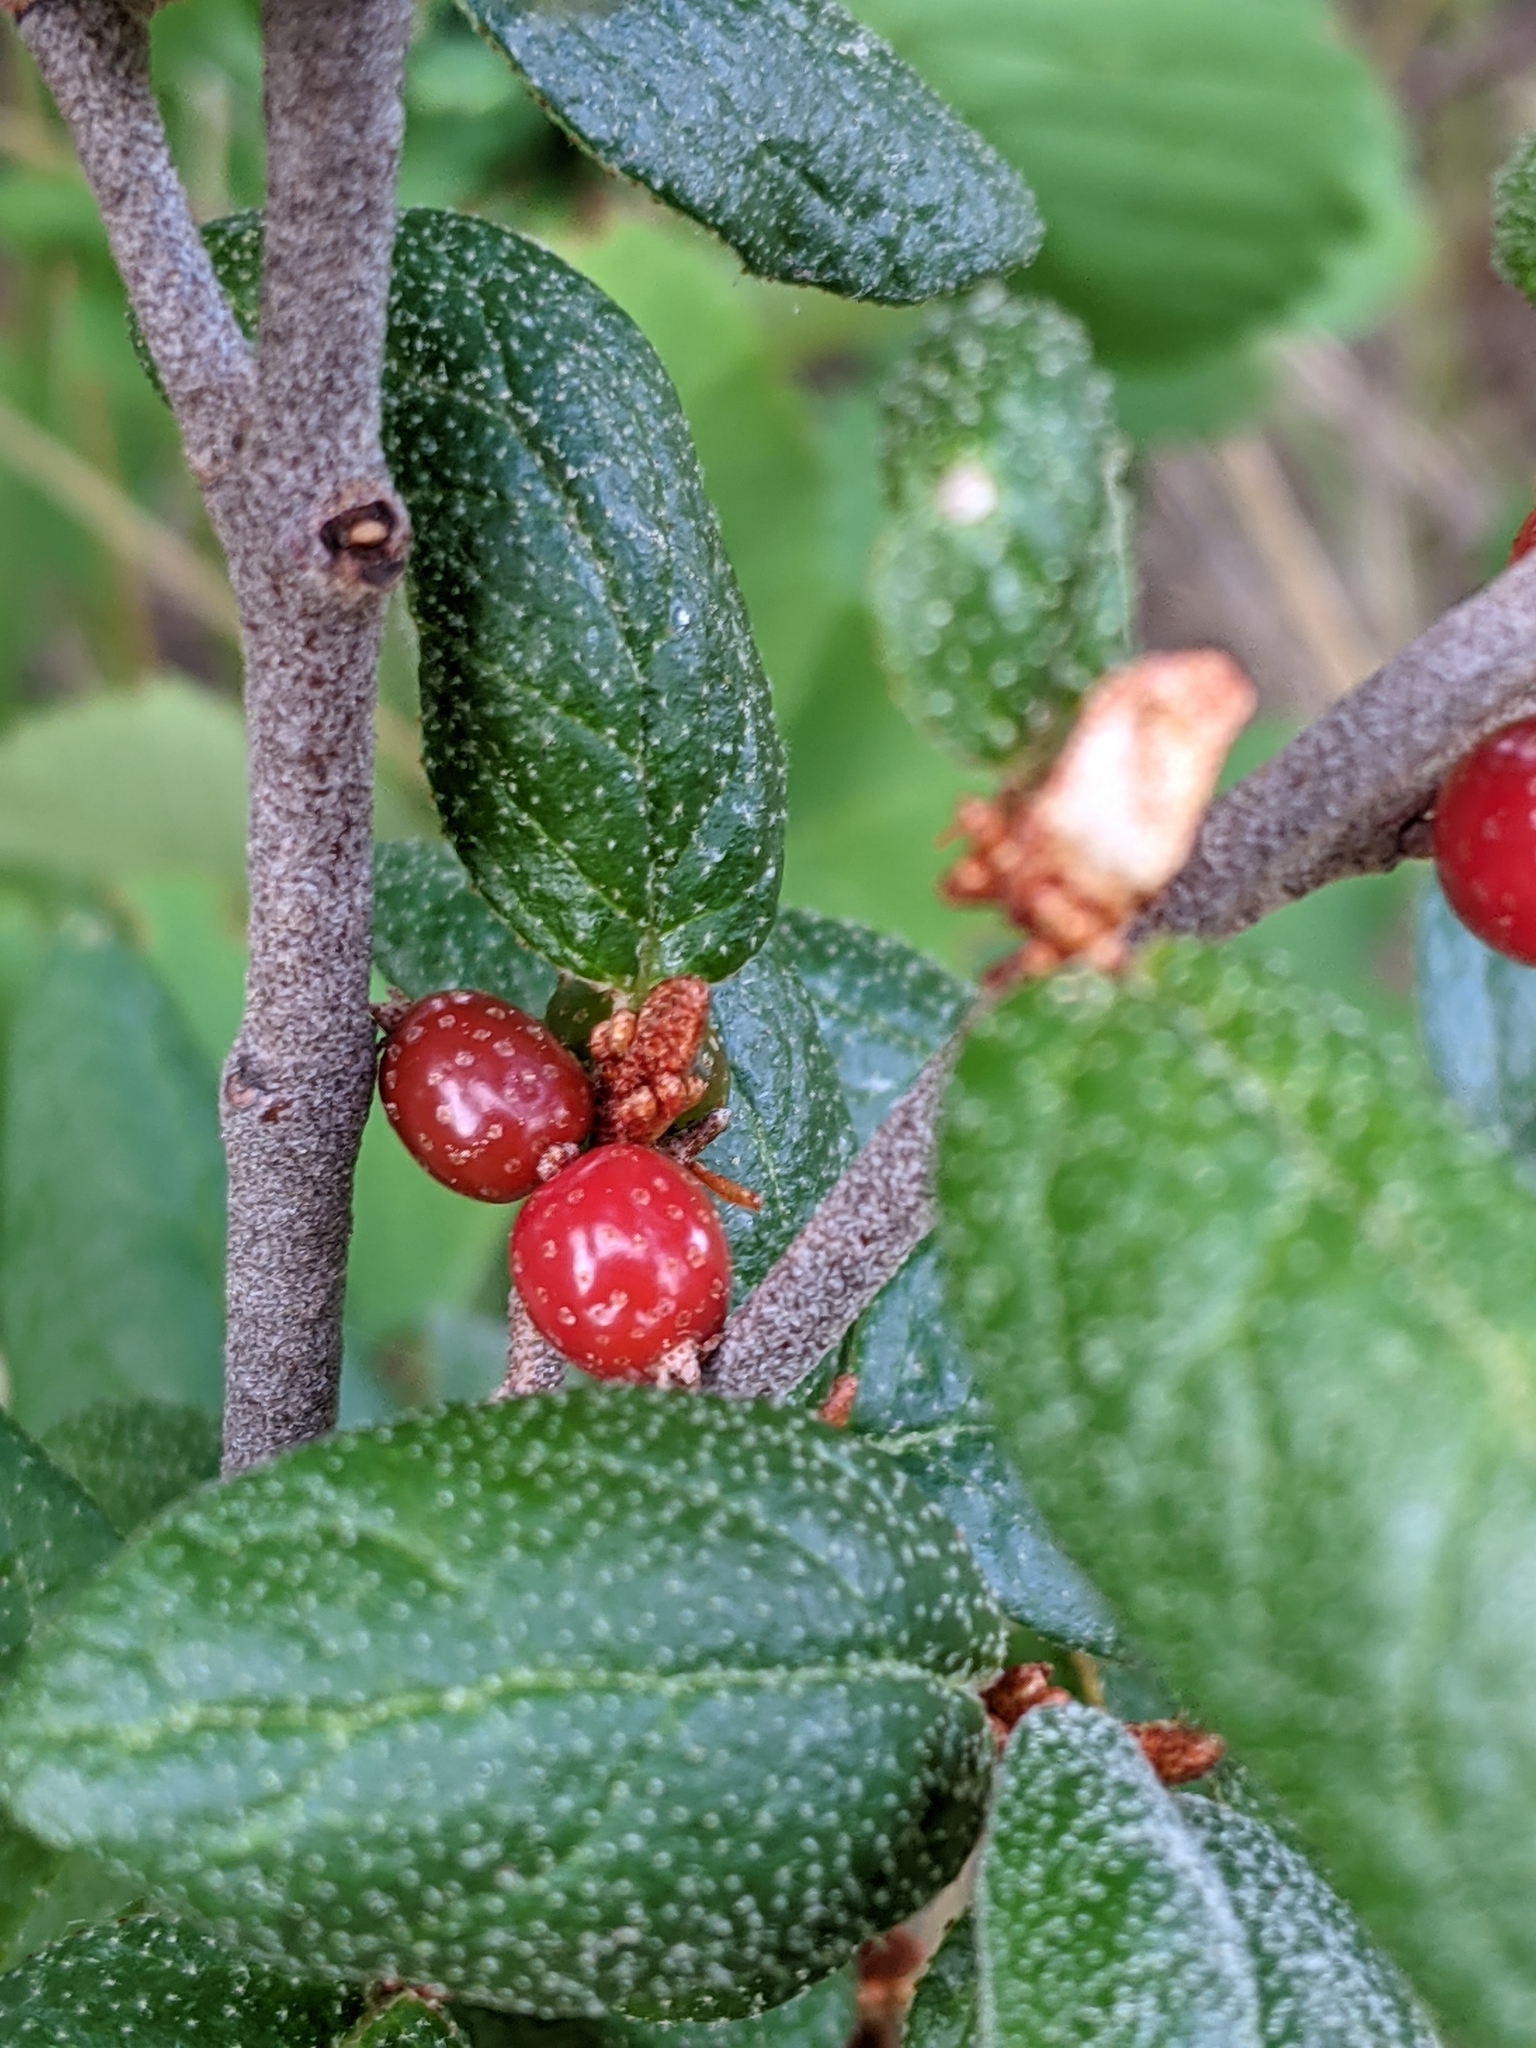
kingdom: Plantae
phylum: Tracheophyta
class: Magnoliopsida
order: Rosales
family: Elaeagnaceae
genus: Shepherdia
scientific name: Shepherdia canadensis
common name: Soapberry
